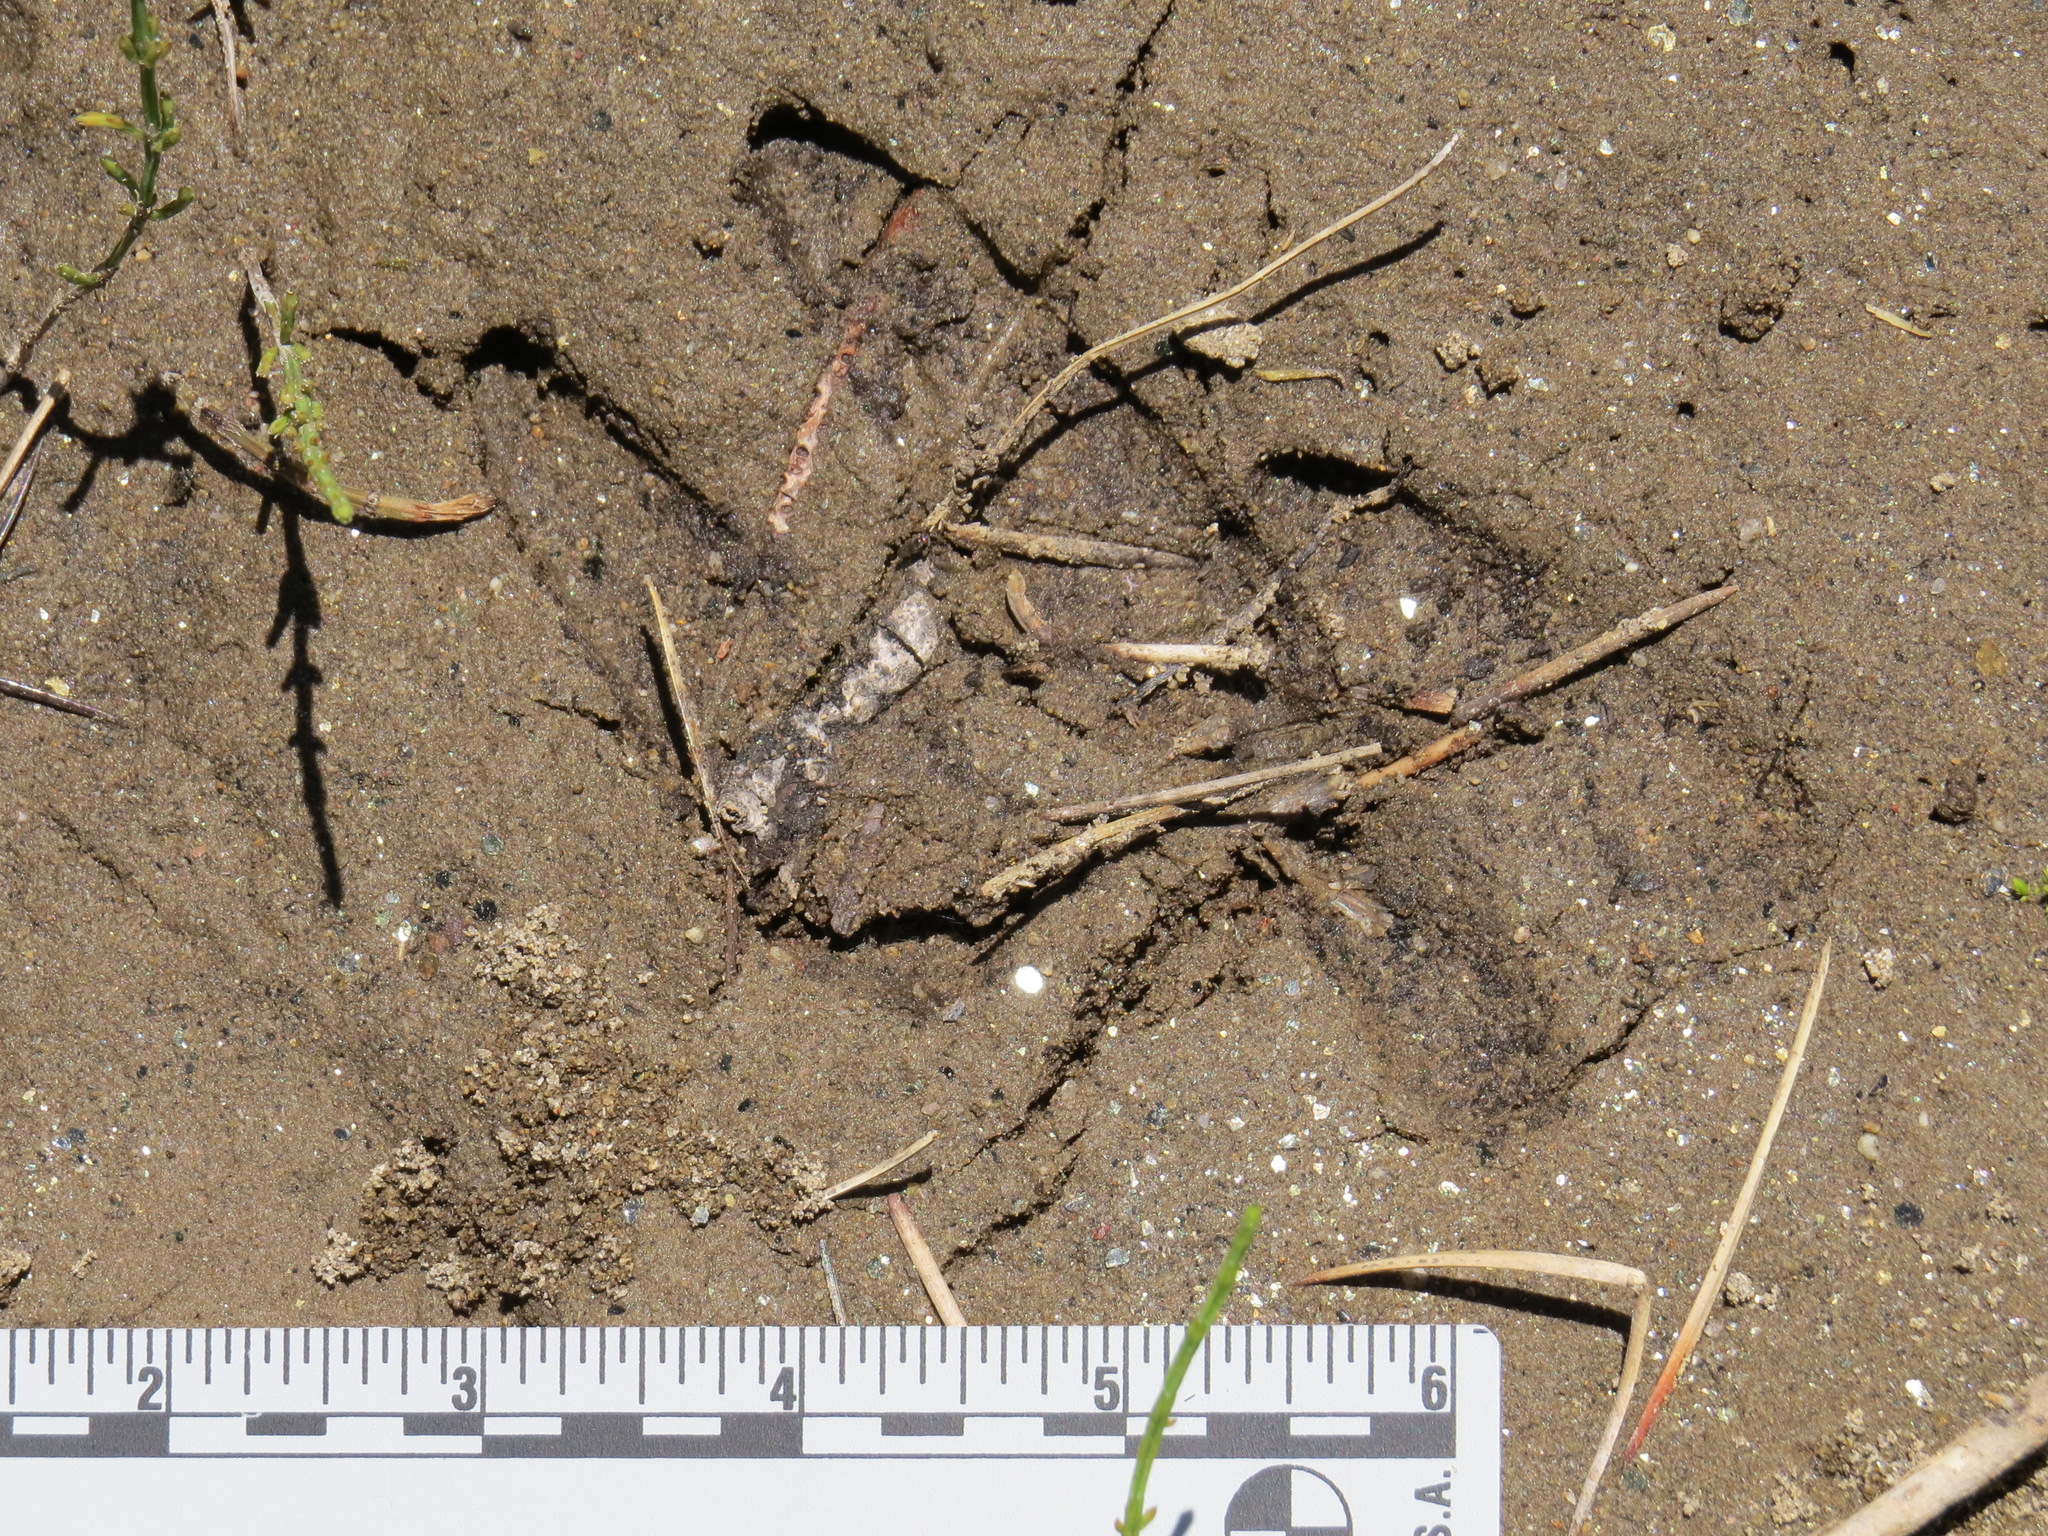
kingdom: Animalia
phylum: Chordata
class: Mammalia
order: Artiodactyla
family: Cervidae
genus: Odocoileus
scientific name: Odocoileus hemionus
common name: Mule deer
